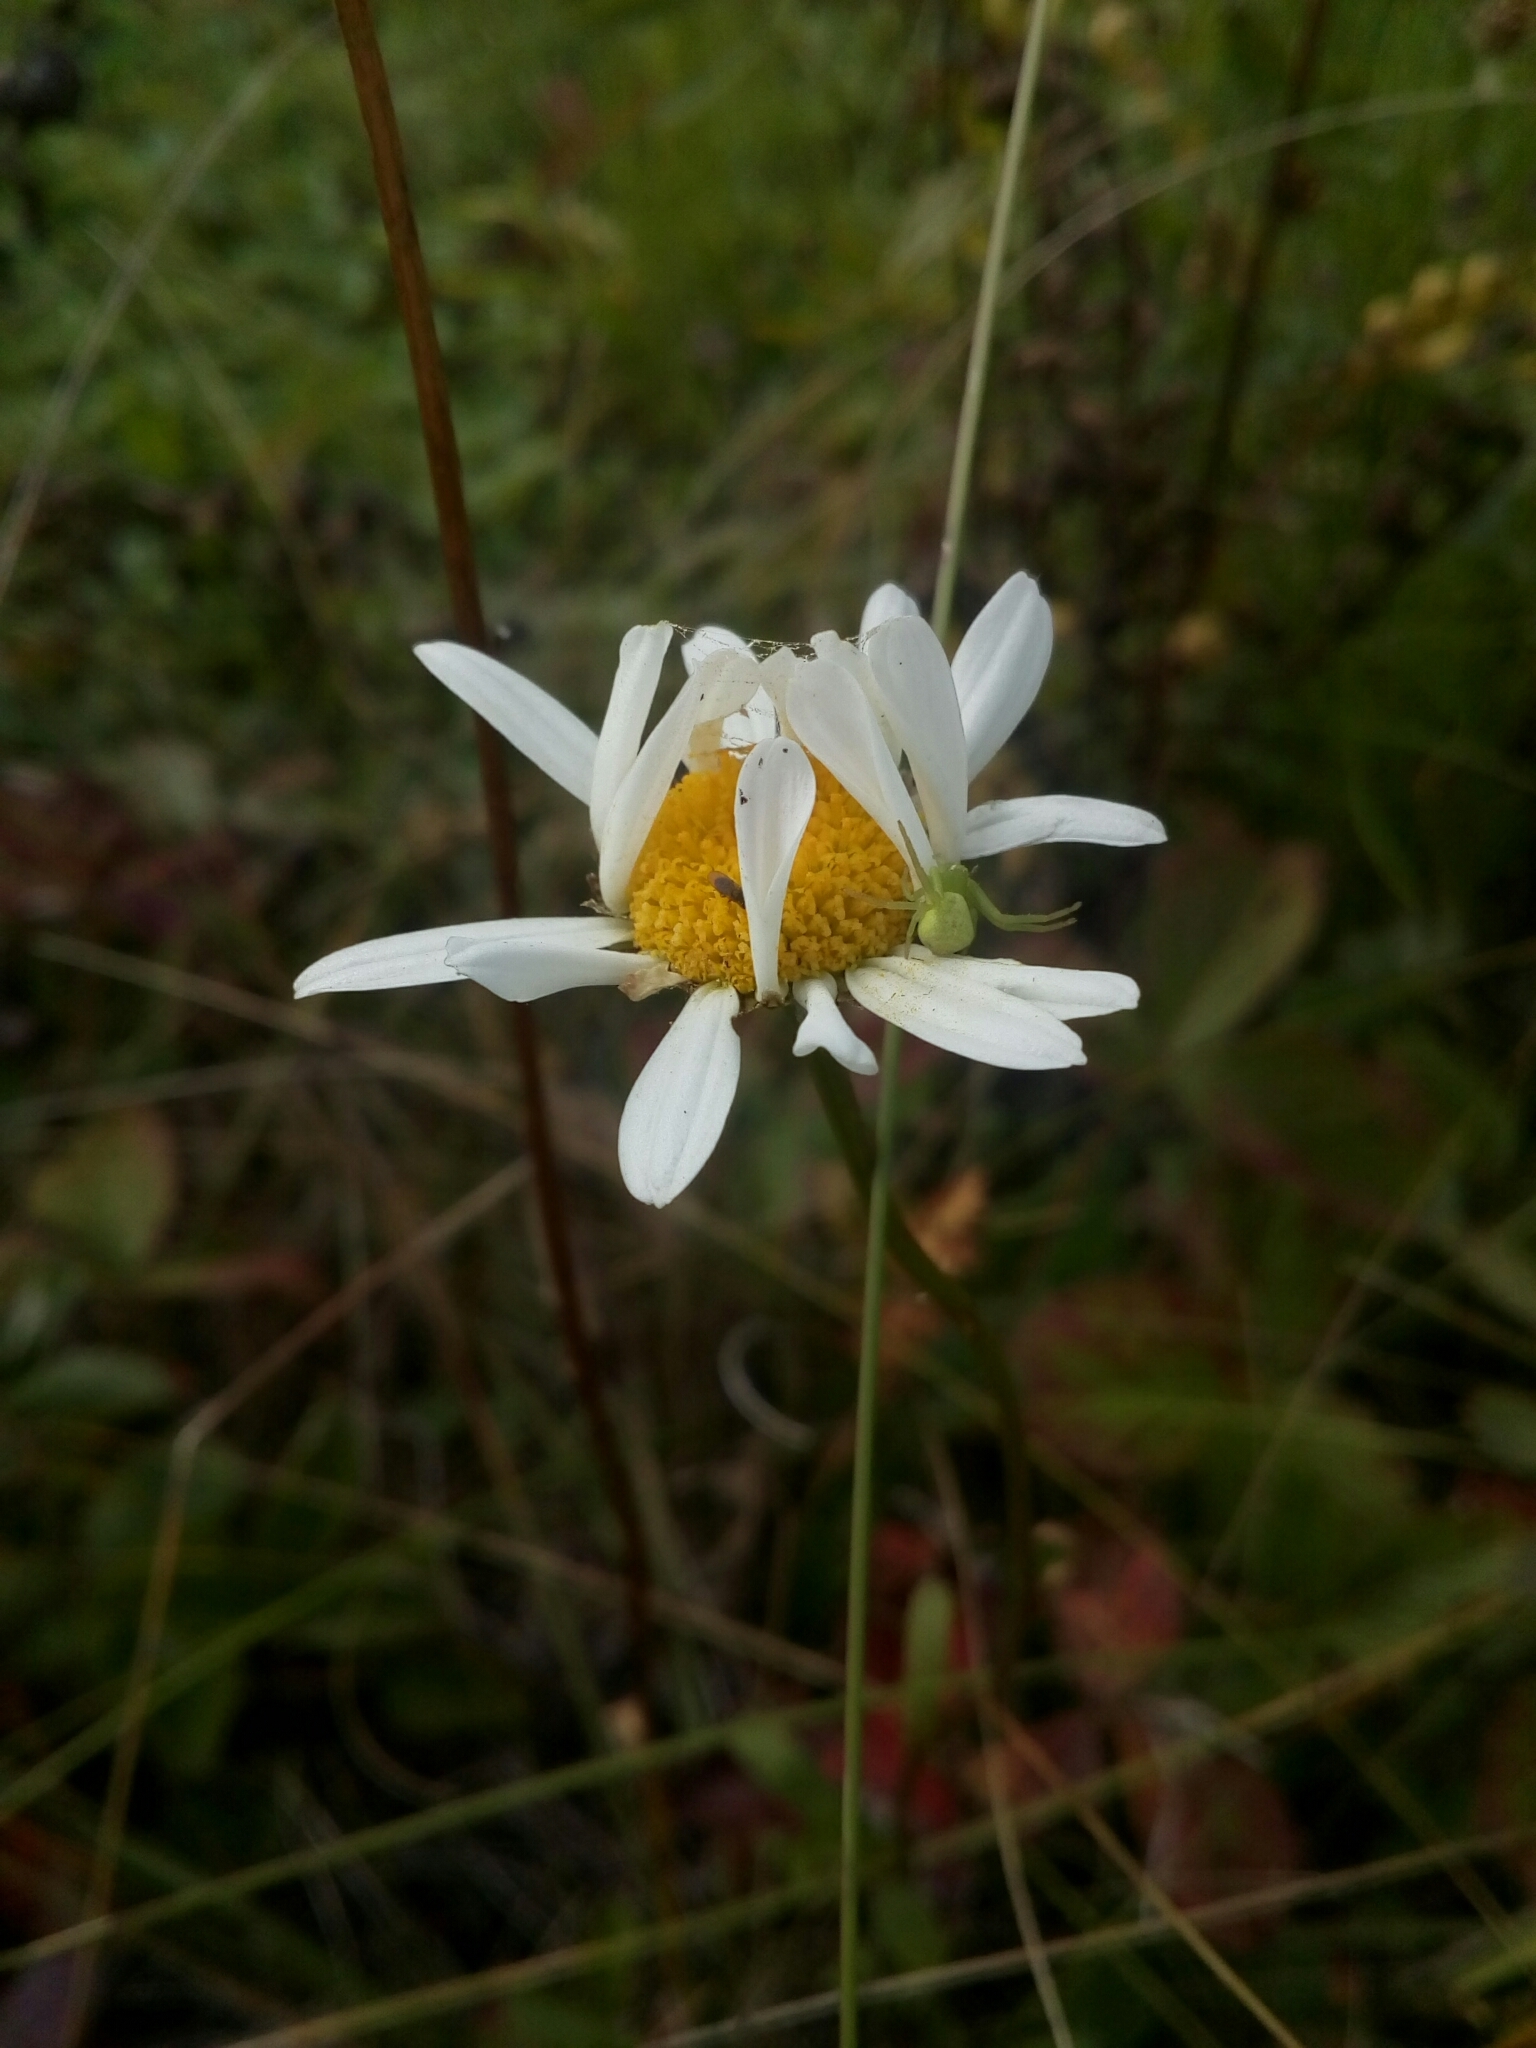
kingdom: Plantae
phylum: Tracheophyta
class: Magnoliopsida
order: Asterales
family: Asteraceae
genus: Leucanthemum
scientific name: Leucanthemum vulgare
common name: Oxeye daisy
